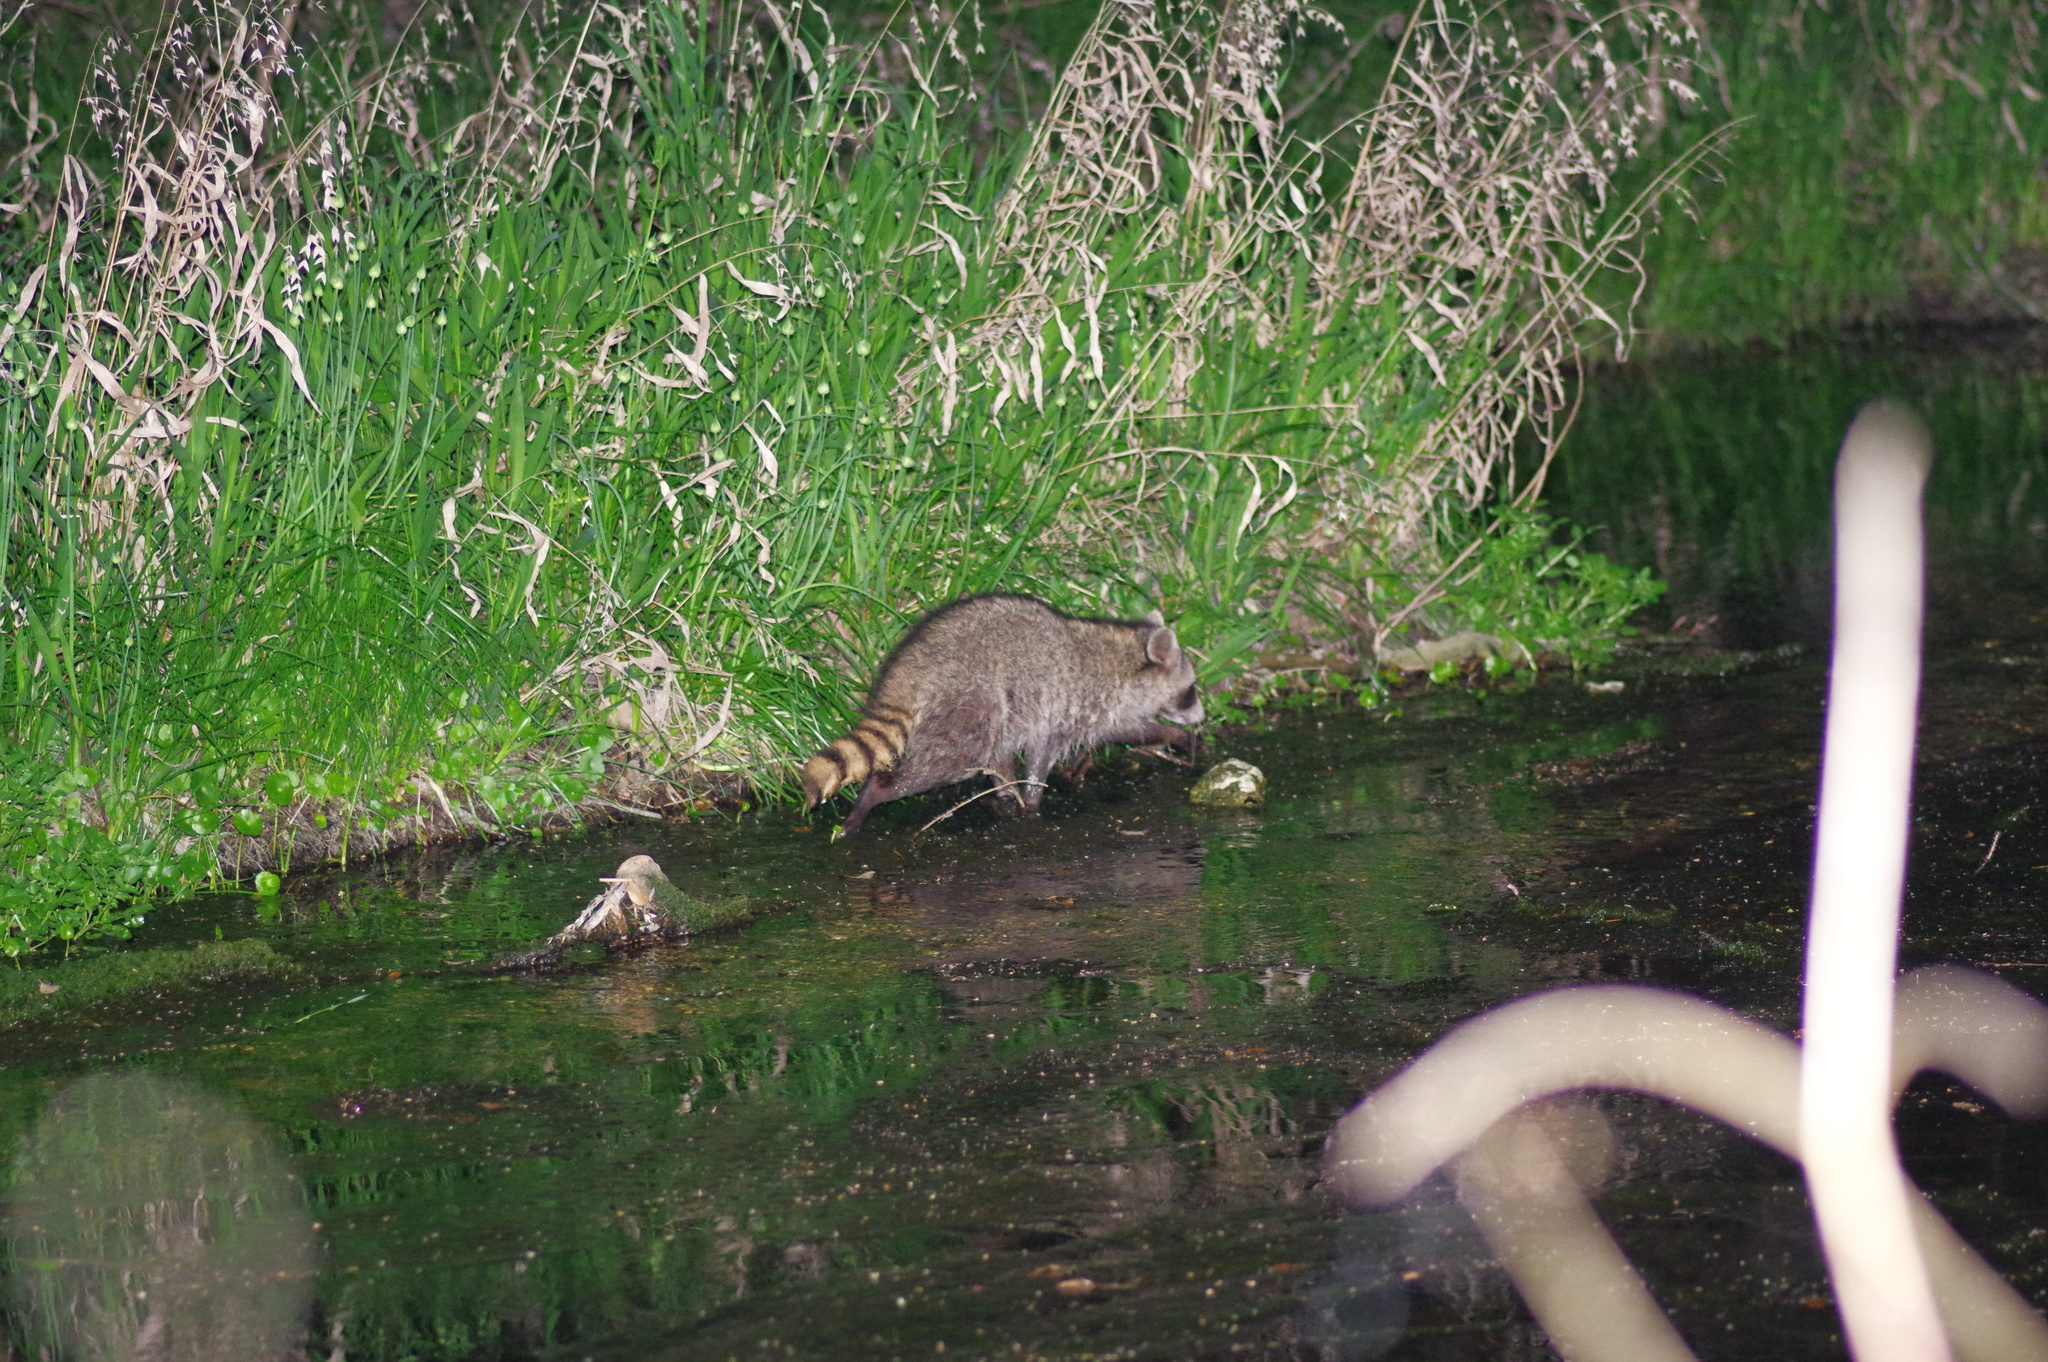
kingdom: Animalia
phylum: Chordata
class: Mammalia
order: Carnivora
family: Procyonidae
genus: Procyon
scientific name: Procyon lotor
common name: Raccoon
